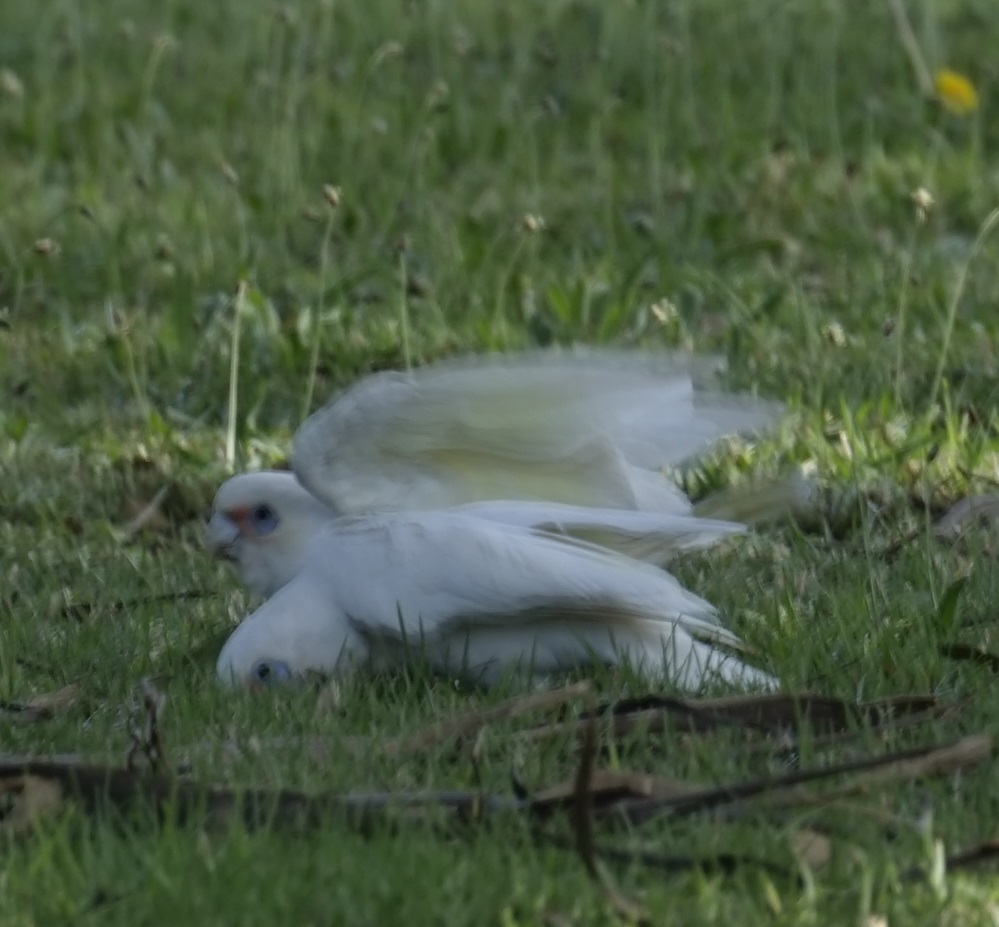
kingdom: Animalia
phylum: Chordata
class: Aves
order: Psittaciformes
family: Psittacidae
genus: Cacatua
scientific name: Cacatua sanguinea
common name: Little corella
